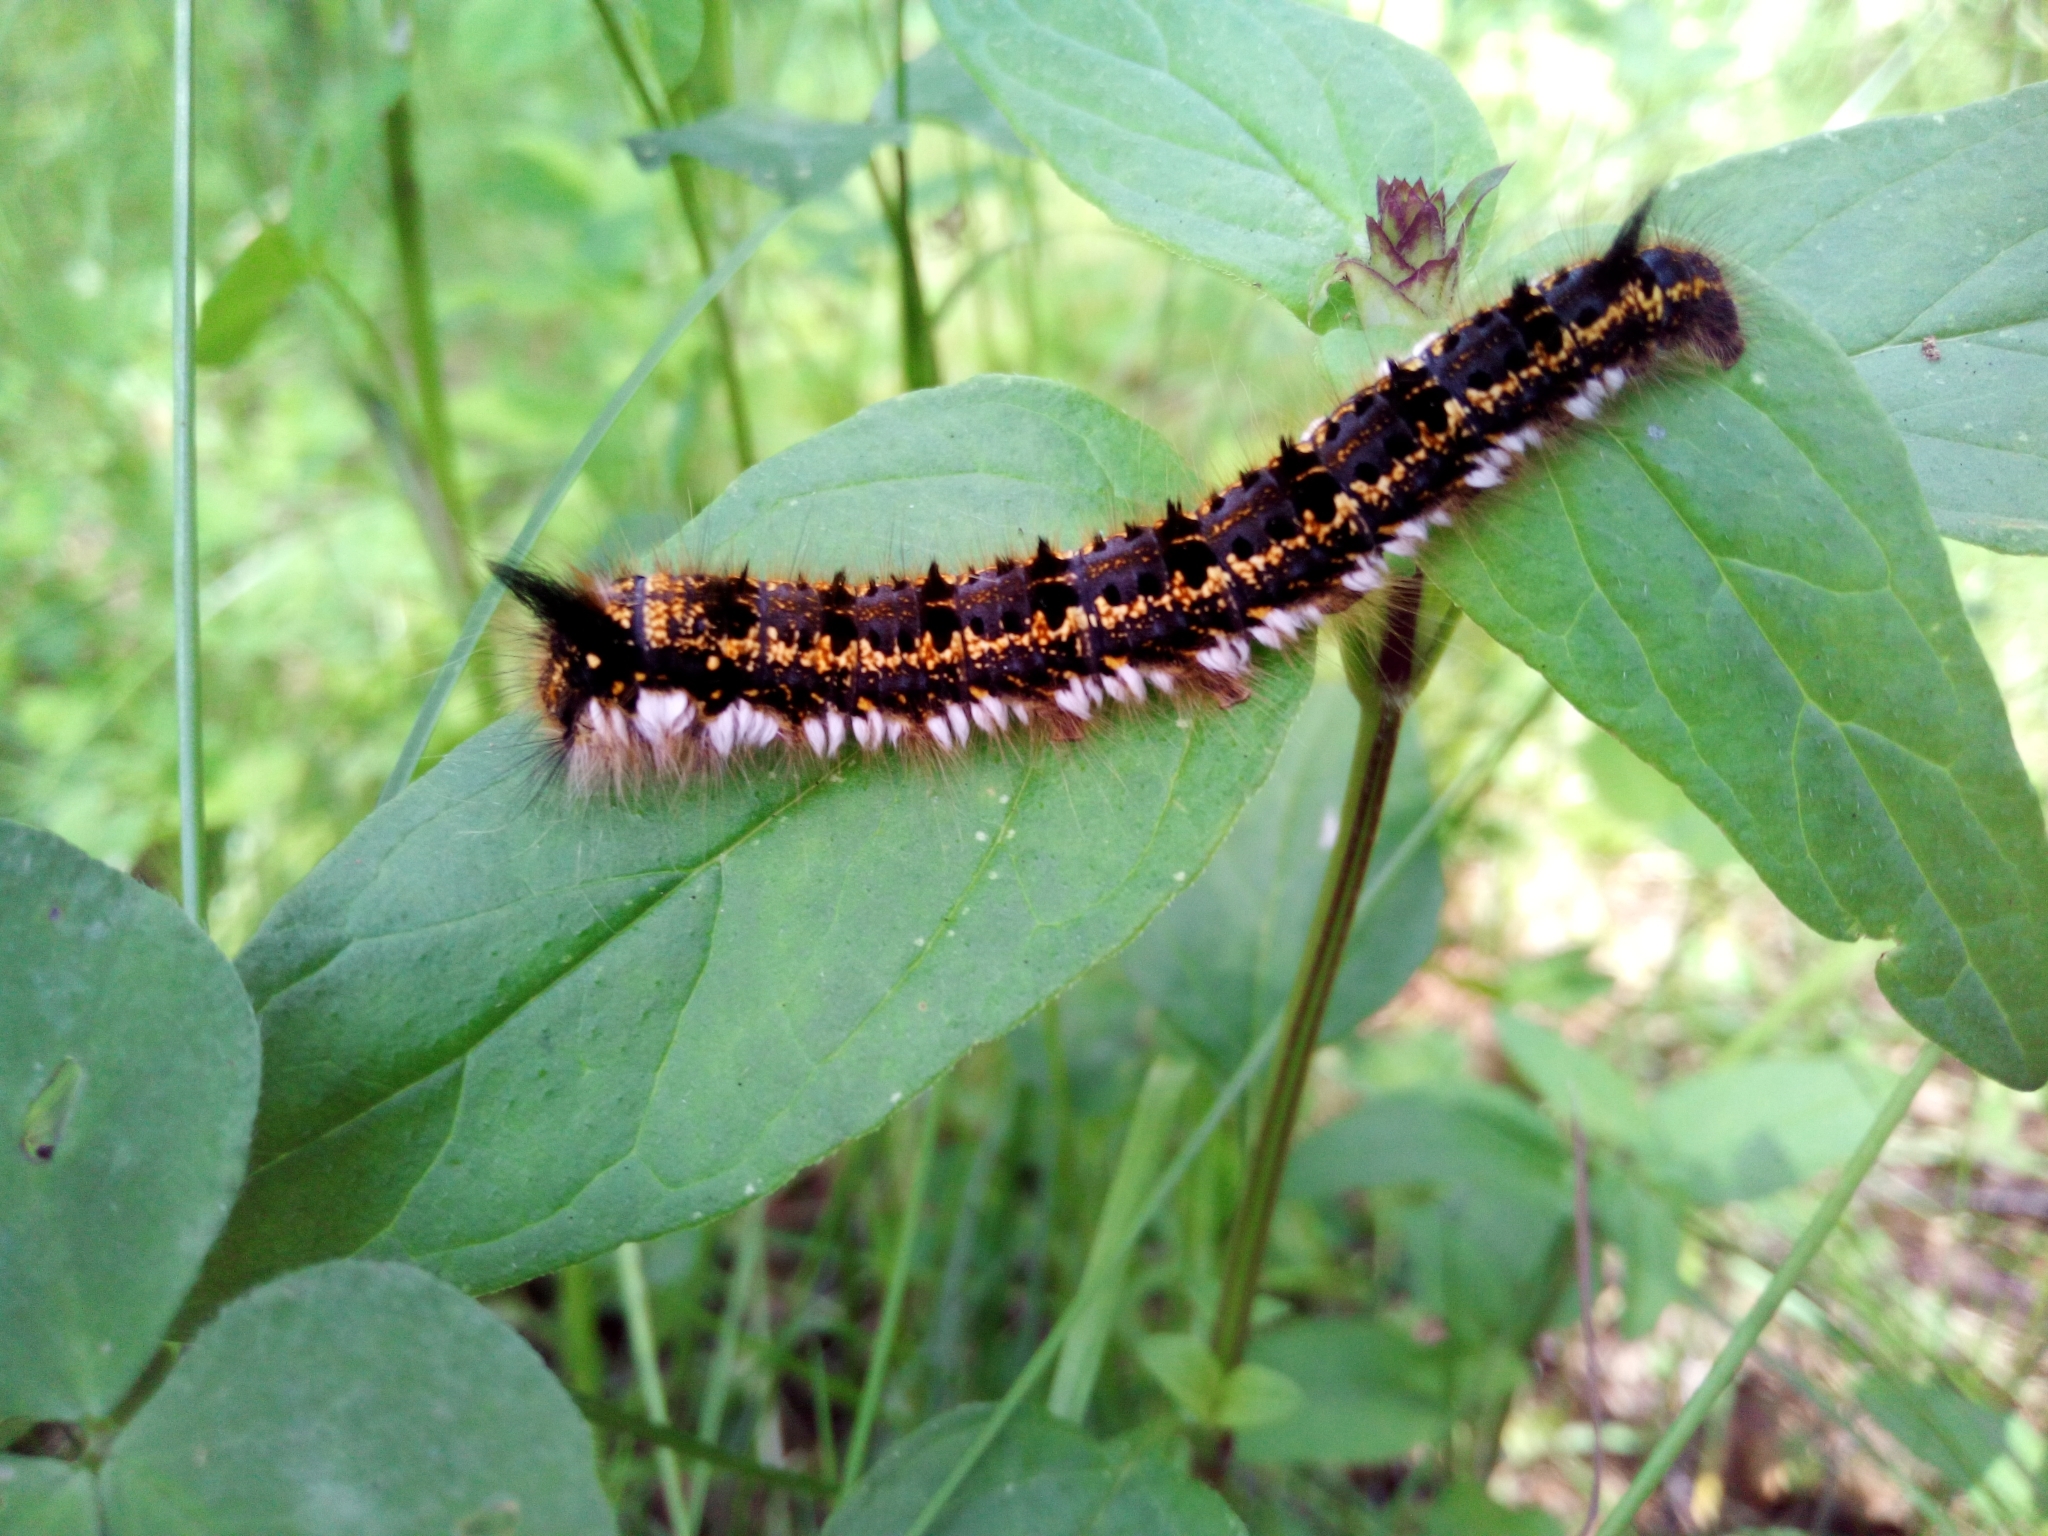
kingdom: Animalia
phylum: Arthropoda
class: Insecta
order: Lepidoptera
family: Lasiocampidae
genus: Euthrix
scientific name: Euthrix potatoria
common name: Drinker
